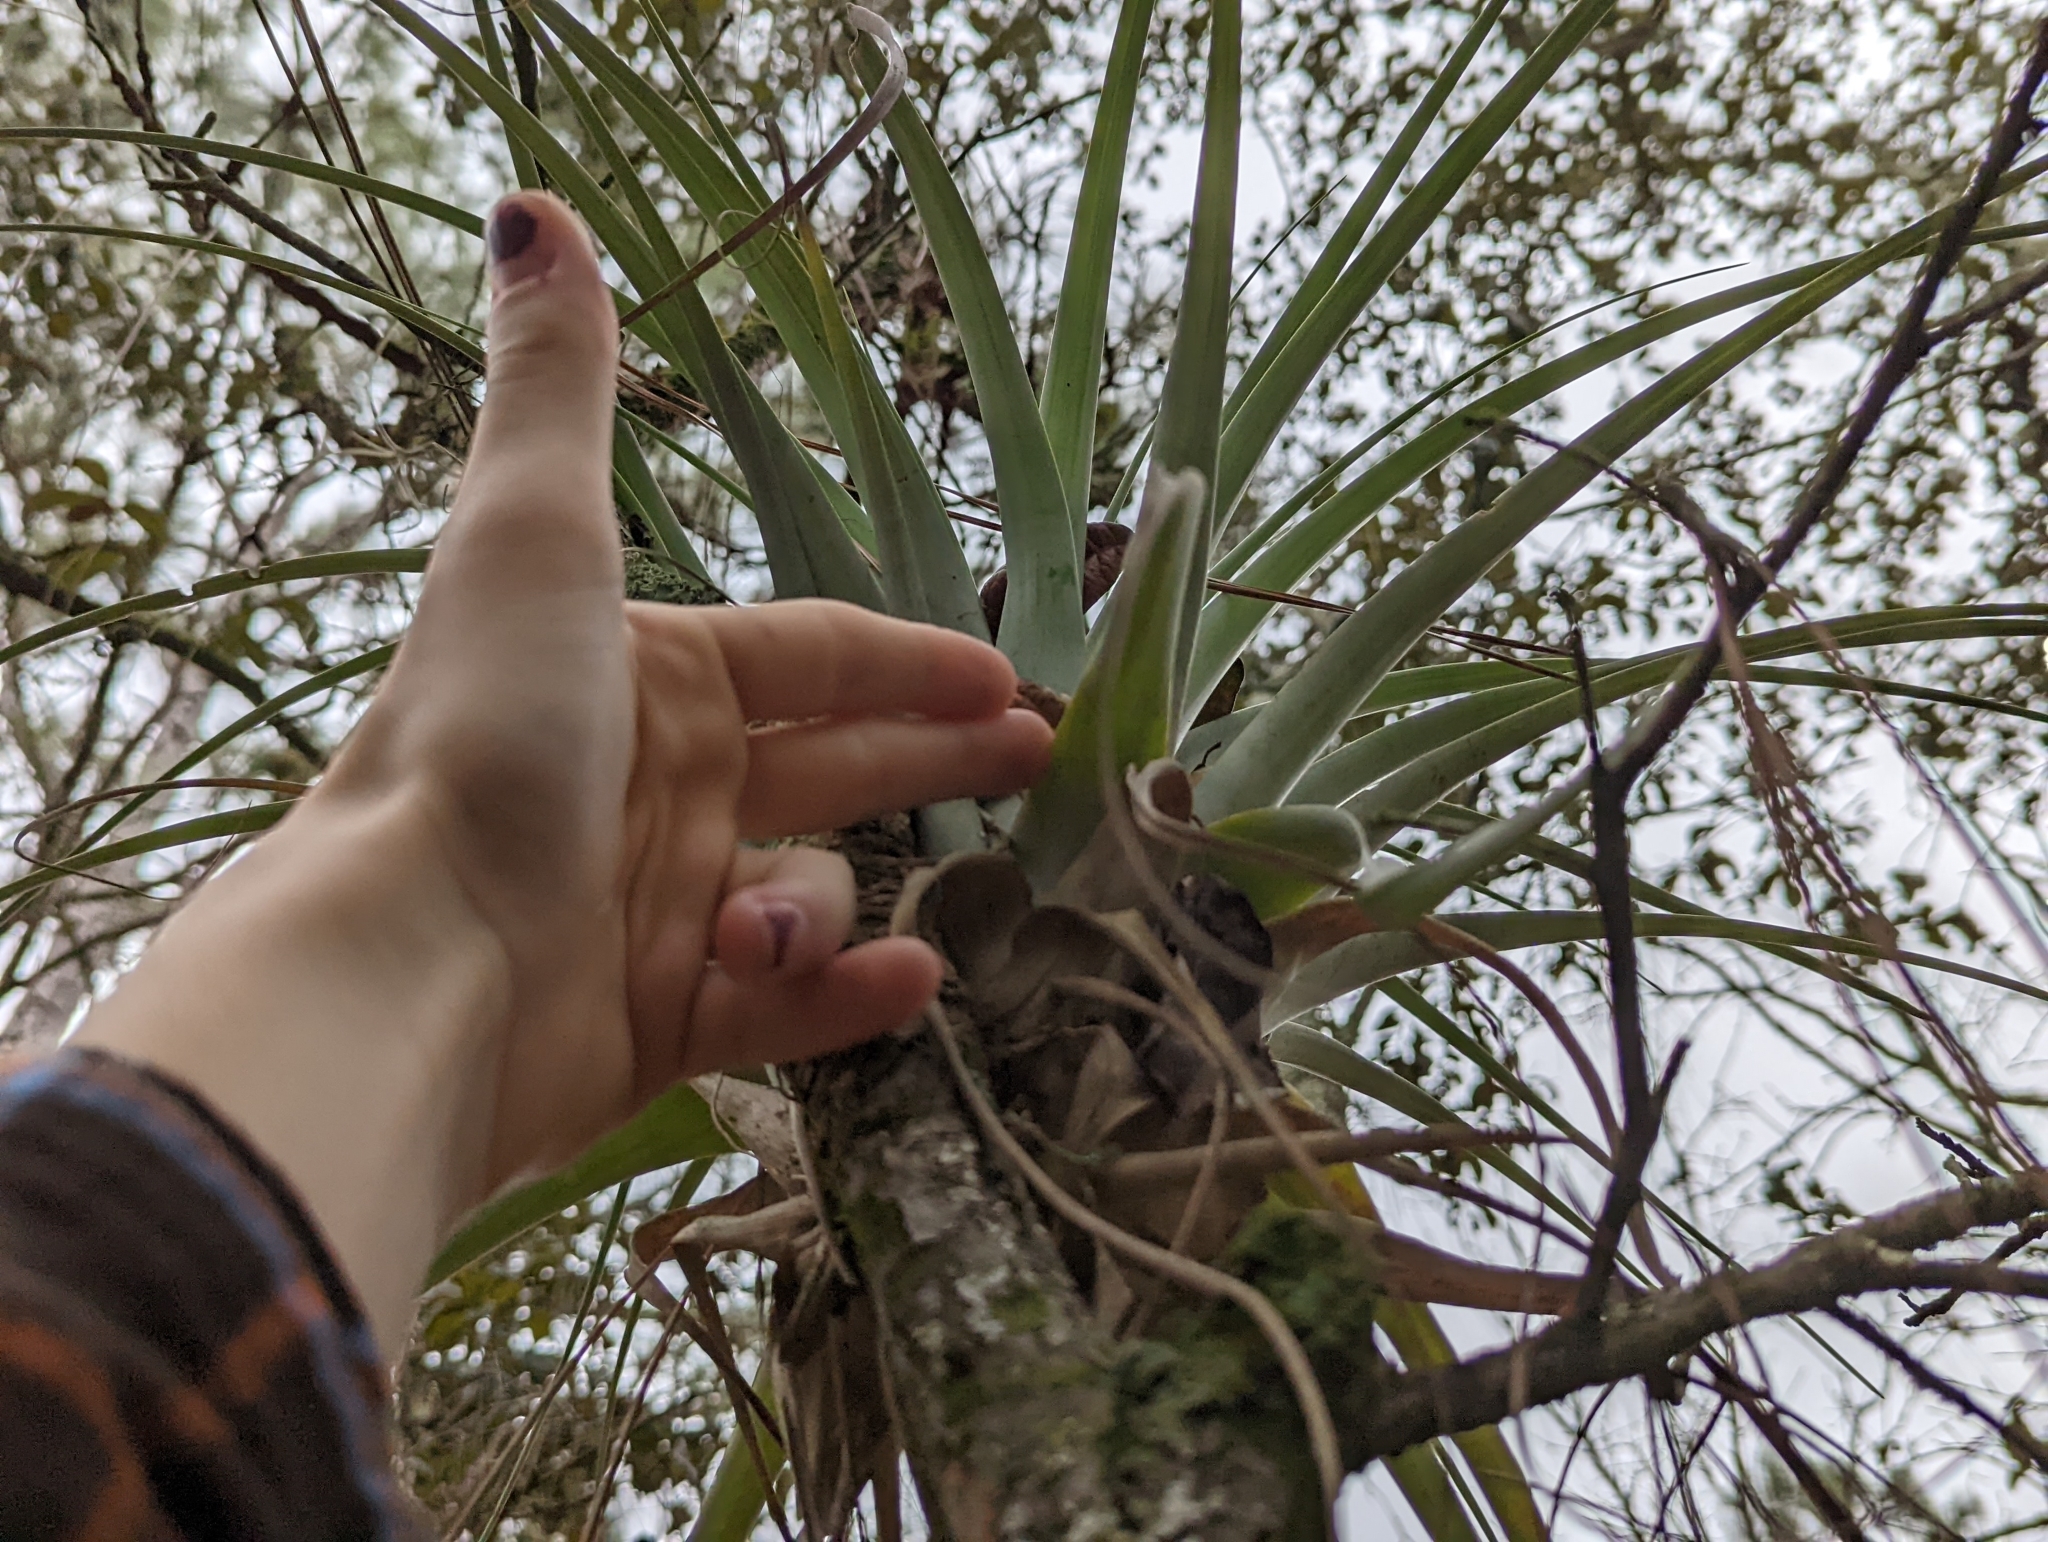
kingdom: Plantae
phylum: Tracheophyta
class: Liliopsida
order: Poales
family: Bromeliaceae
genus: Tillandsia
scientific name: Tillandsia utriculata
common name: Wild pine
